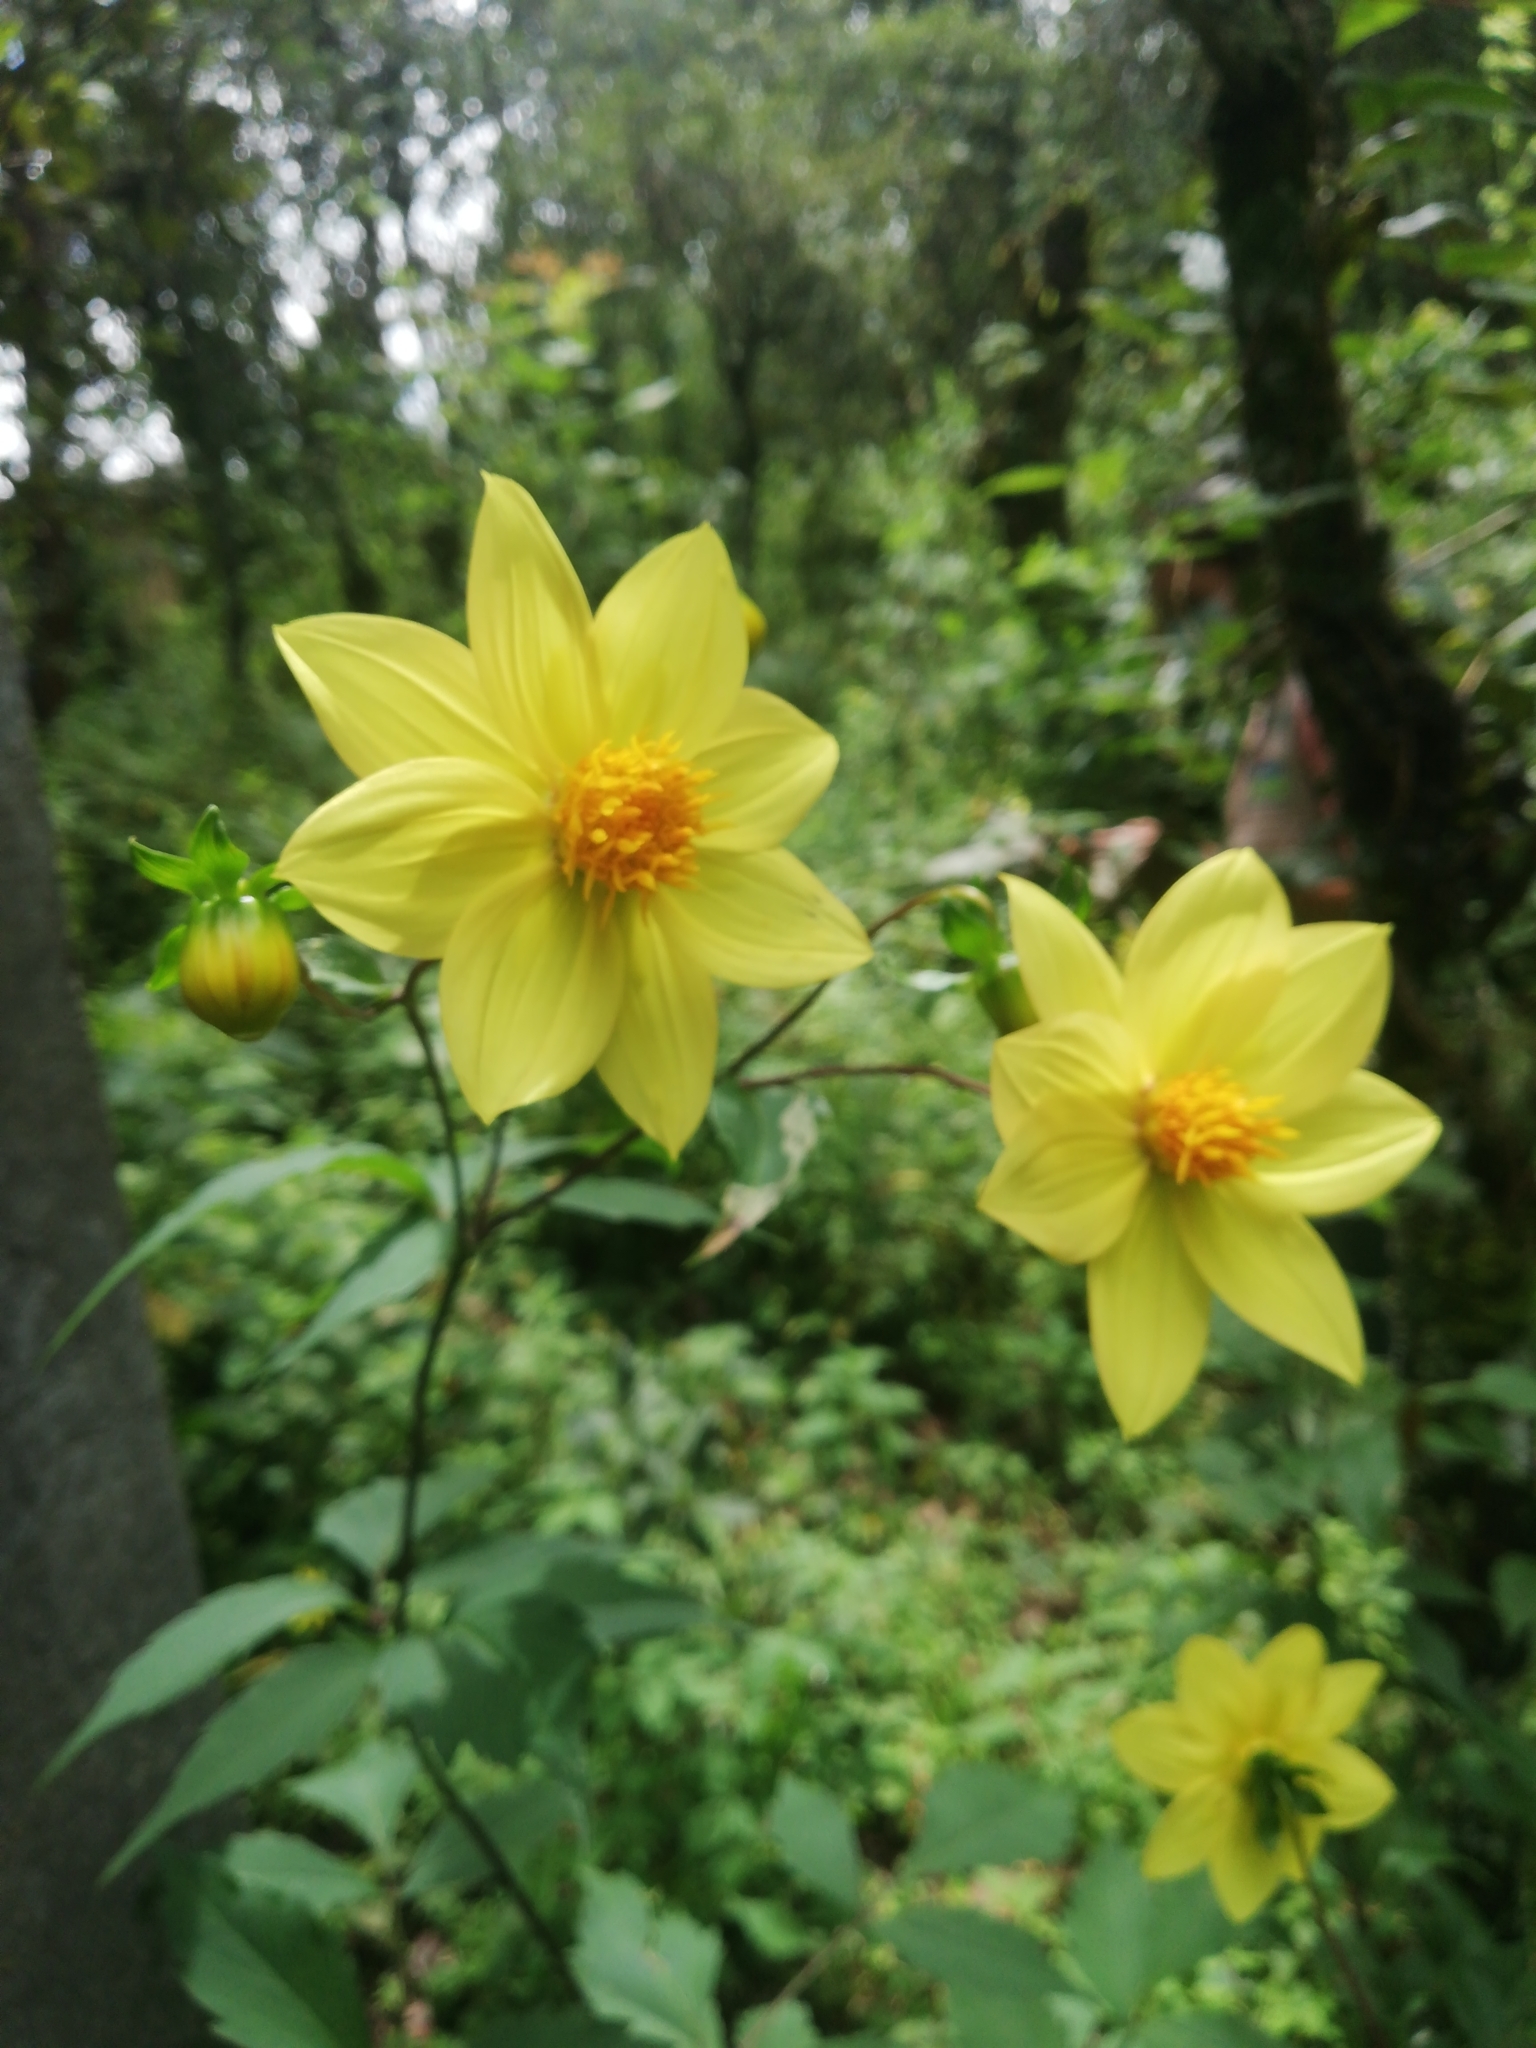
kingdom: Plantae
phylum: Tracheophyta
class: Magnoliopsida
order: Asterales
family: Asteraceae
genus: Dahlia
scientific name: Dahlia coccinea
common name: Red dahlia
